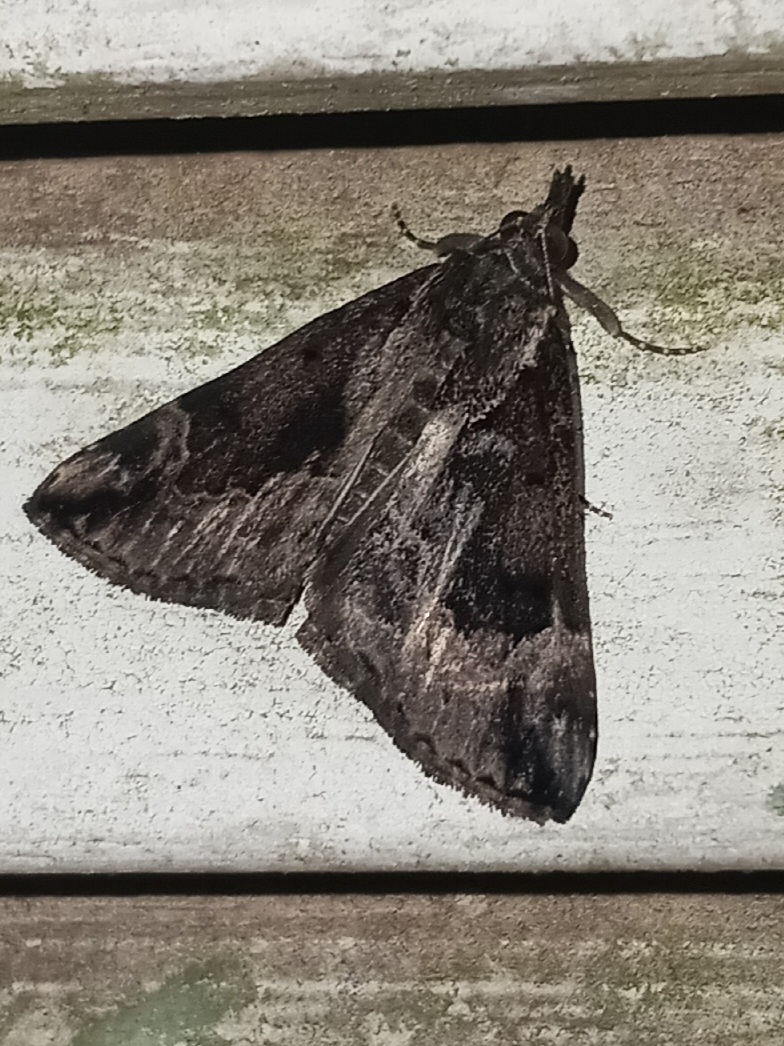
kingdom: Animalia
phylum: Arthropoda
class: Insecta
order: Lepidoptera
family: Erebidae
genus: Hypena
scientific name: Hypena baltimoralis
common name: Baltimore snout
